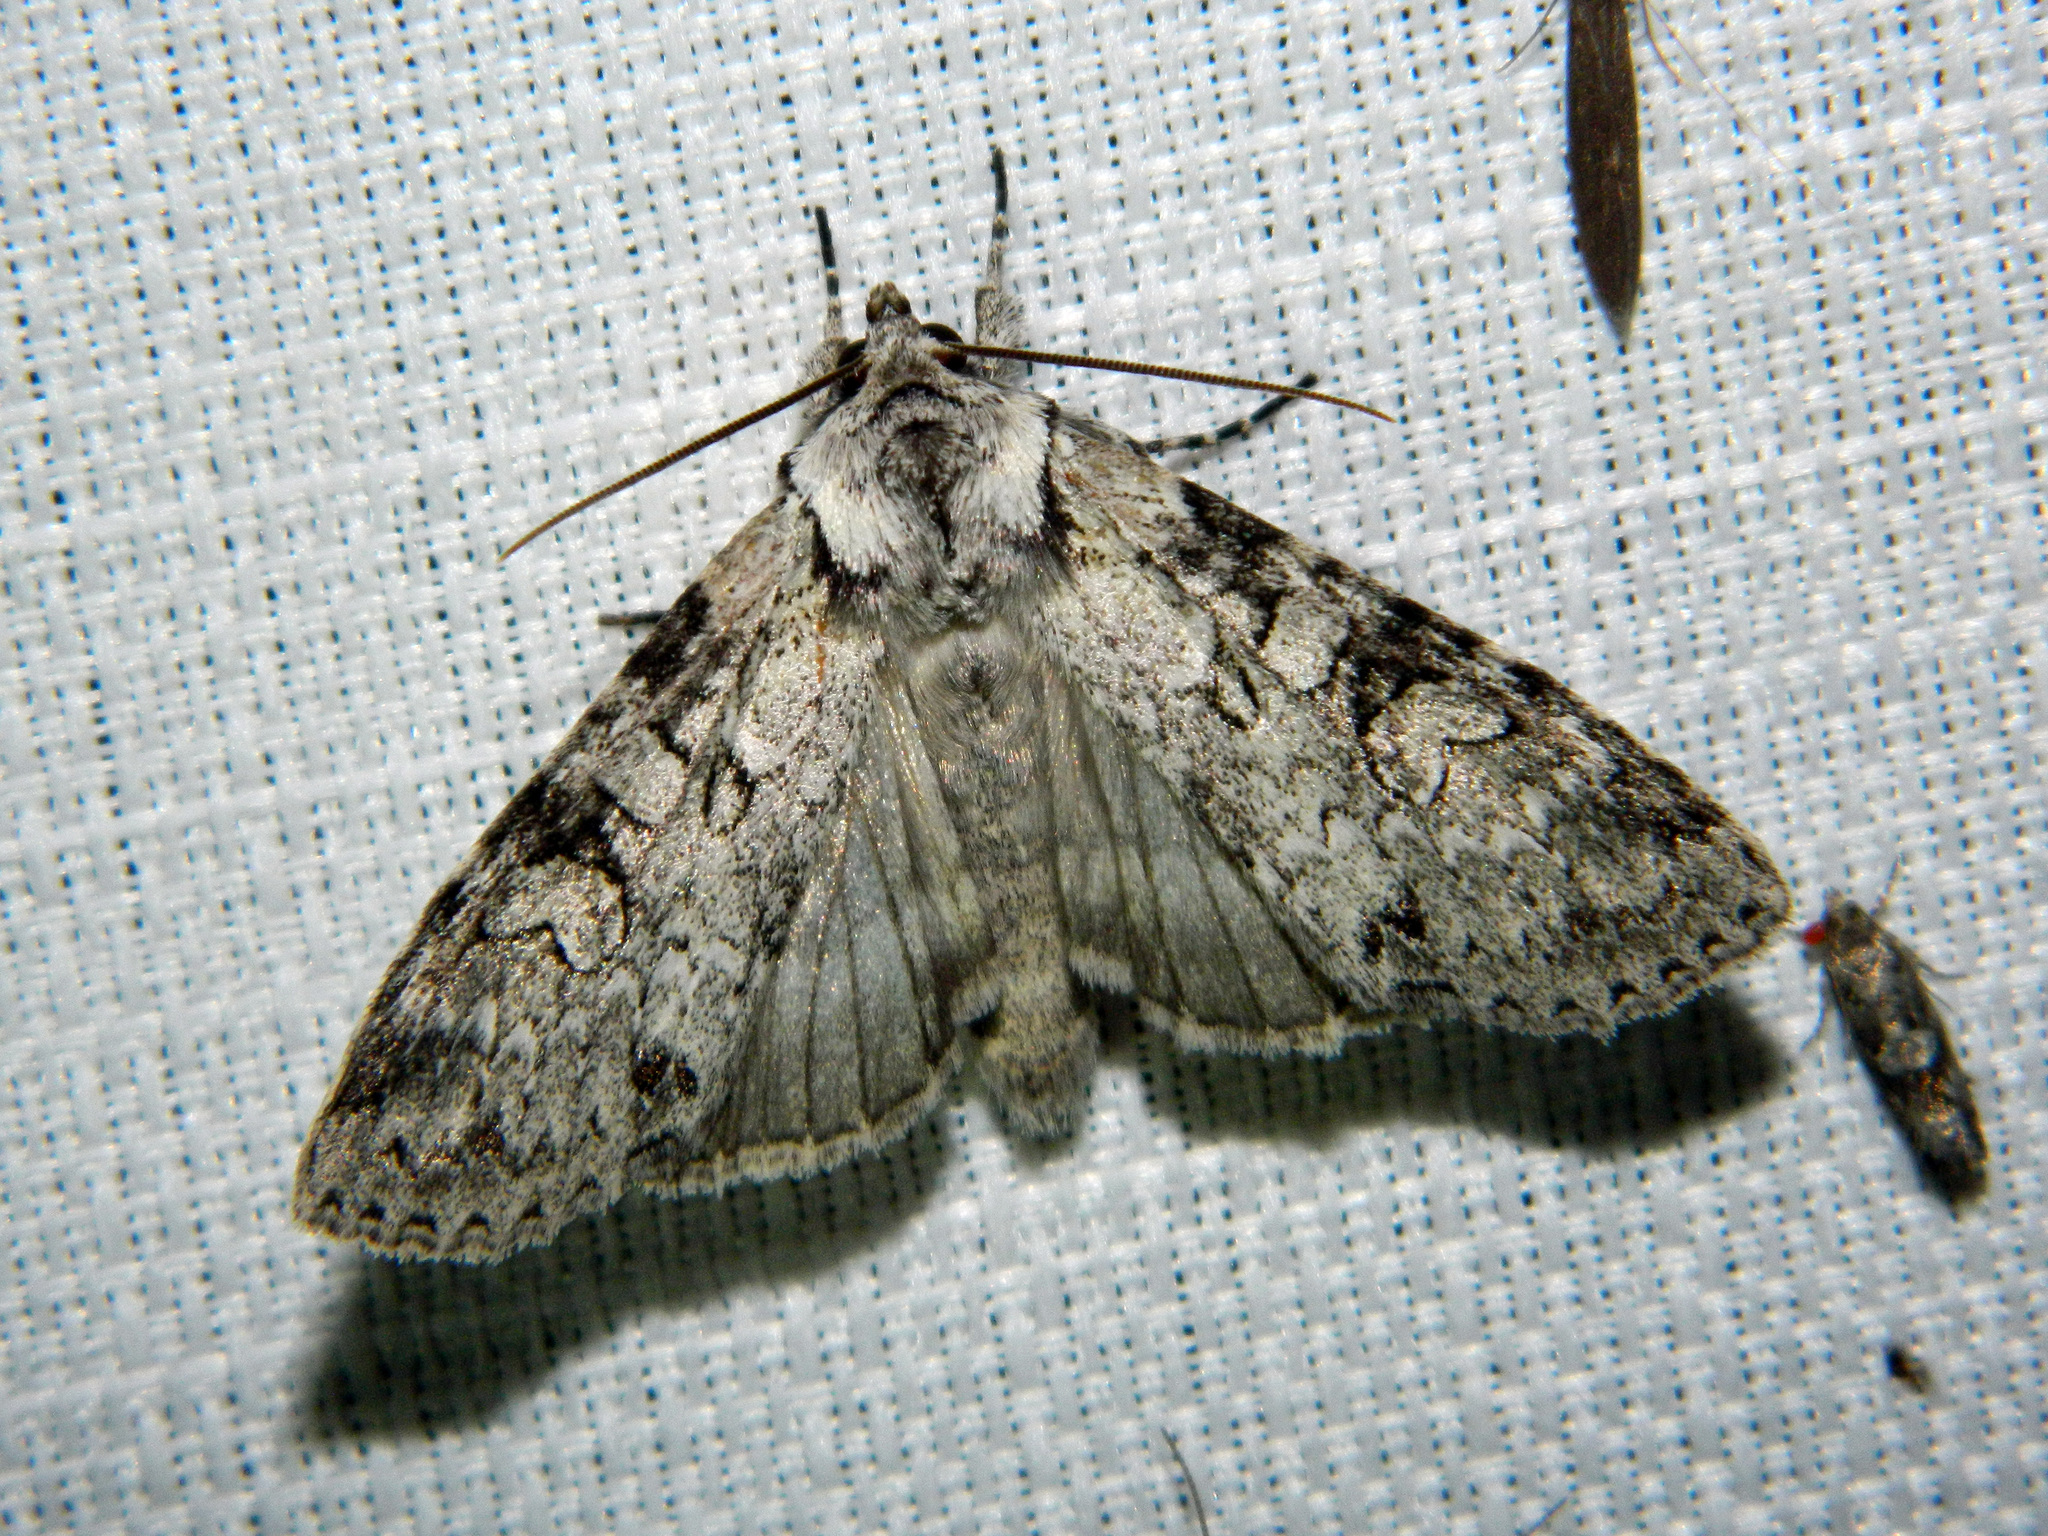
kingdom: Animalia
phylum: Arthropoda
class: Insecta
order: Lepidoptera
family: Noctuidae
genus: Polia
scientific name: Polia nimbosa
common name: Stormy arches
